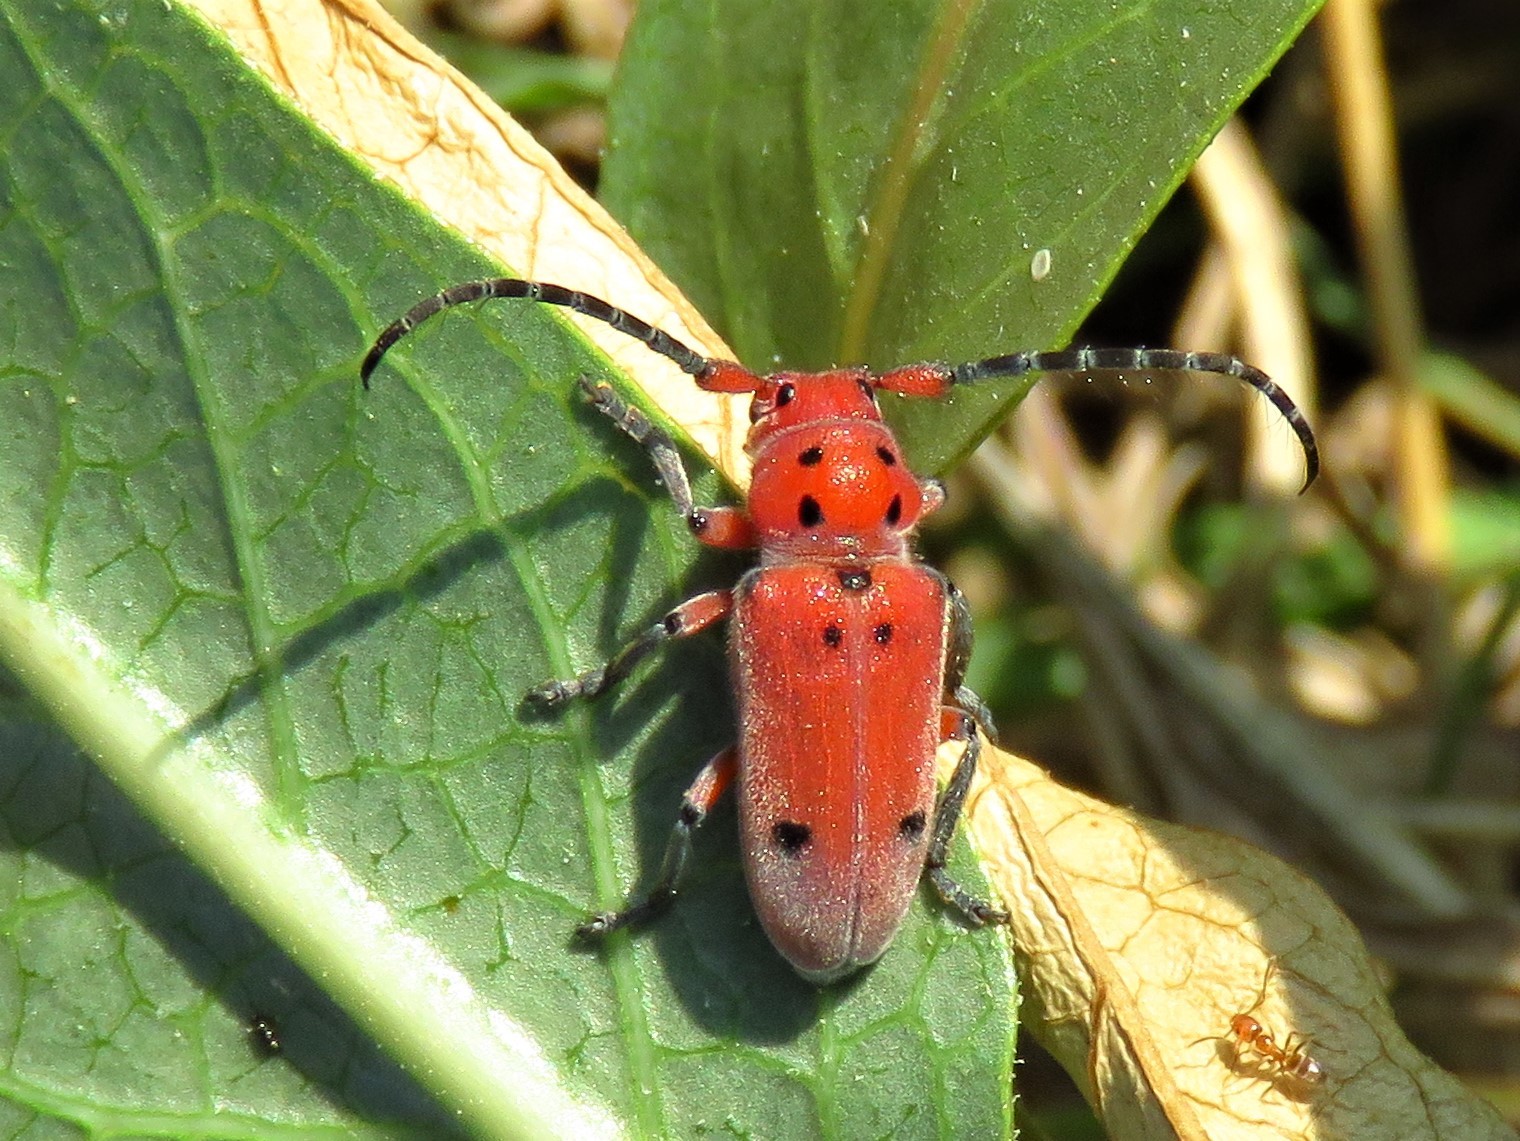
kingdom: Animalia
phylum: Arthropoda
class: Insecta
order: Coleoptera
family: Cerambycidae
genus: Tetraopes
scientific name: Tetraopes texanus
